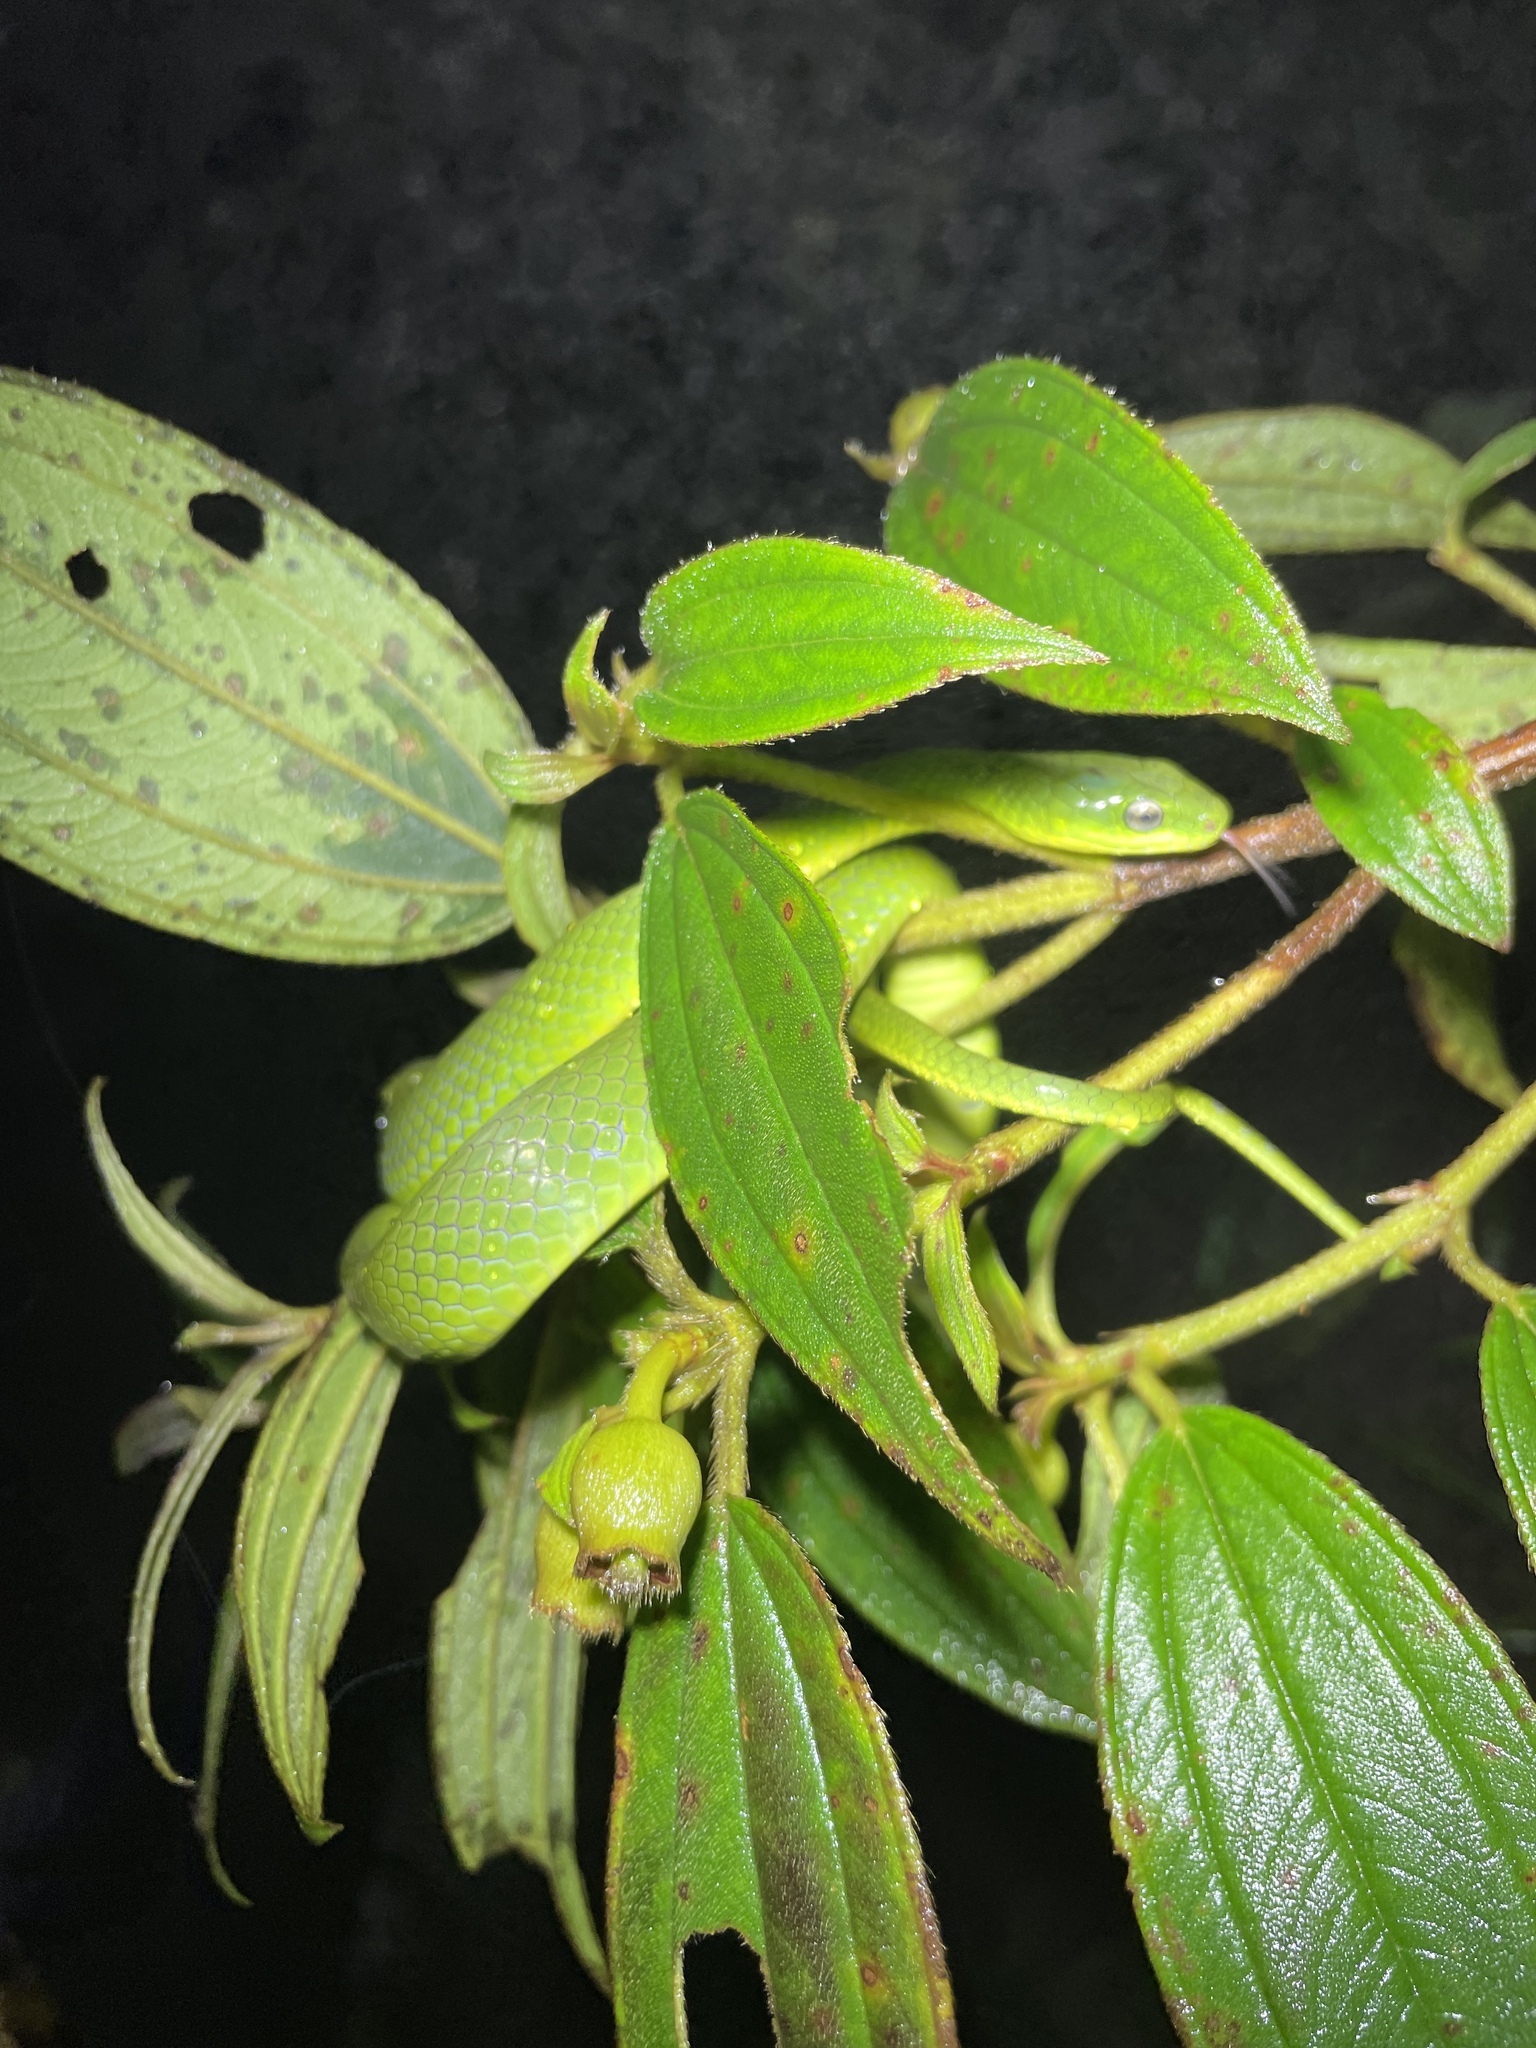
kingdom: Animalia
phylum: Chordata
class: Squamata
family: Colubridae
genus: Ptyas
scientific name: Ptyas major
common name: Chinese green snake
